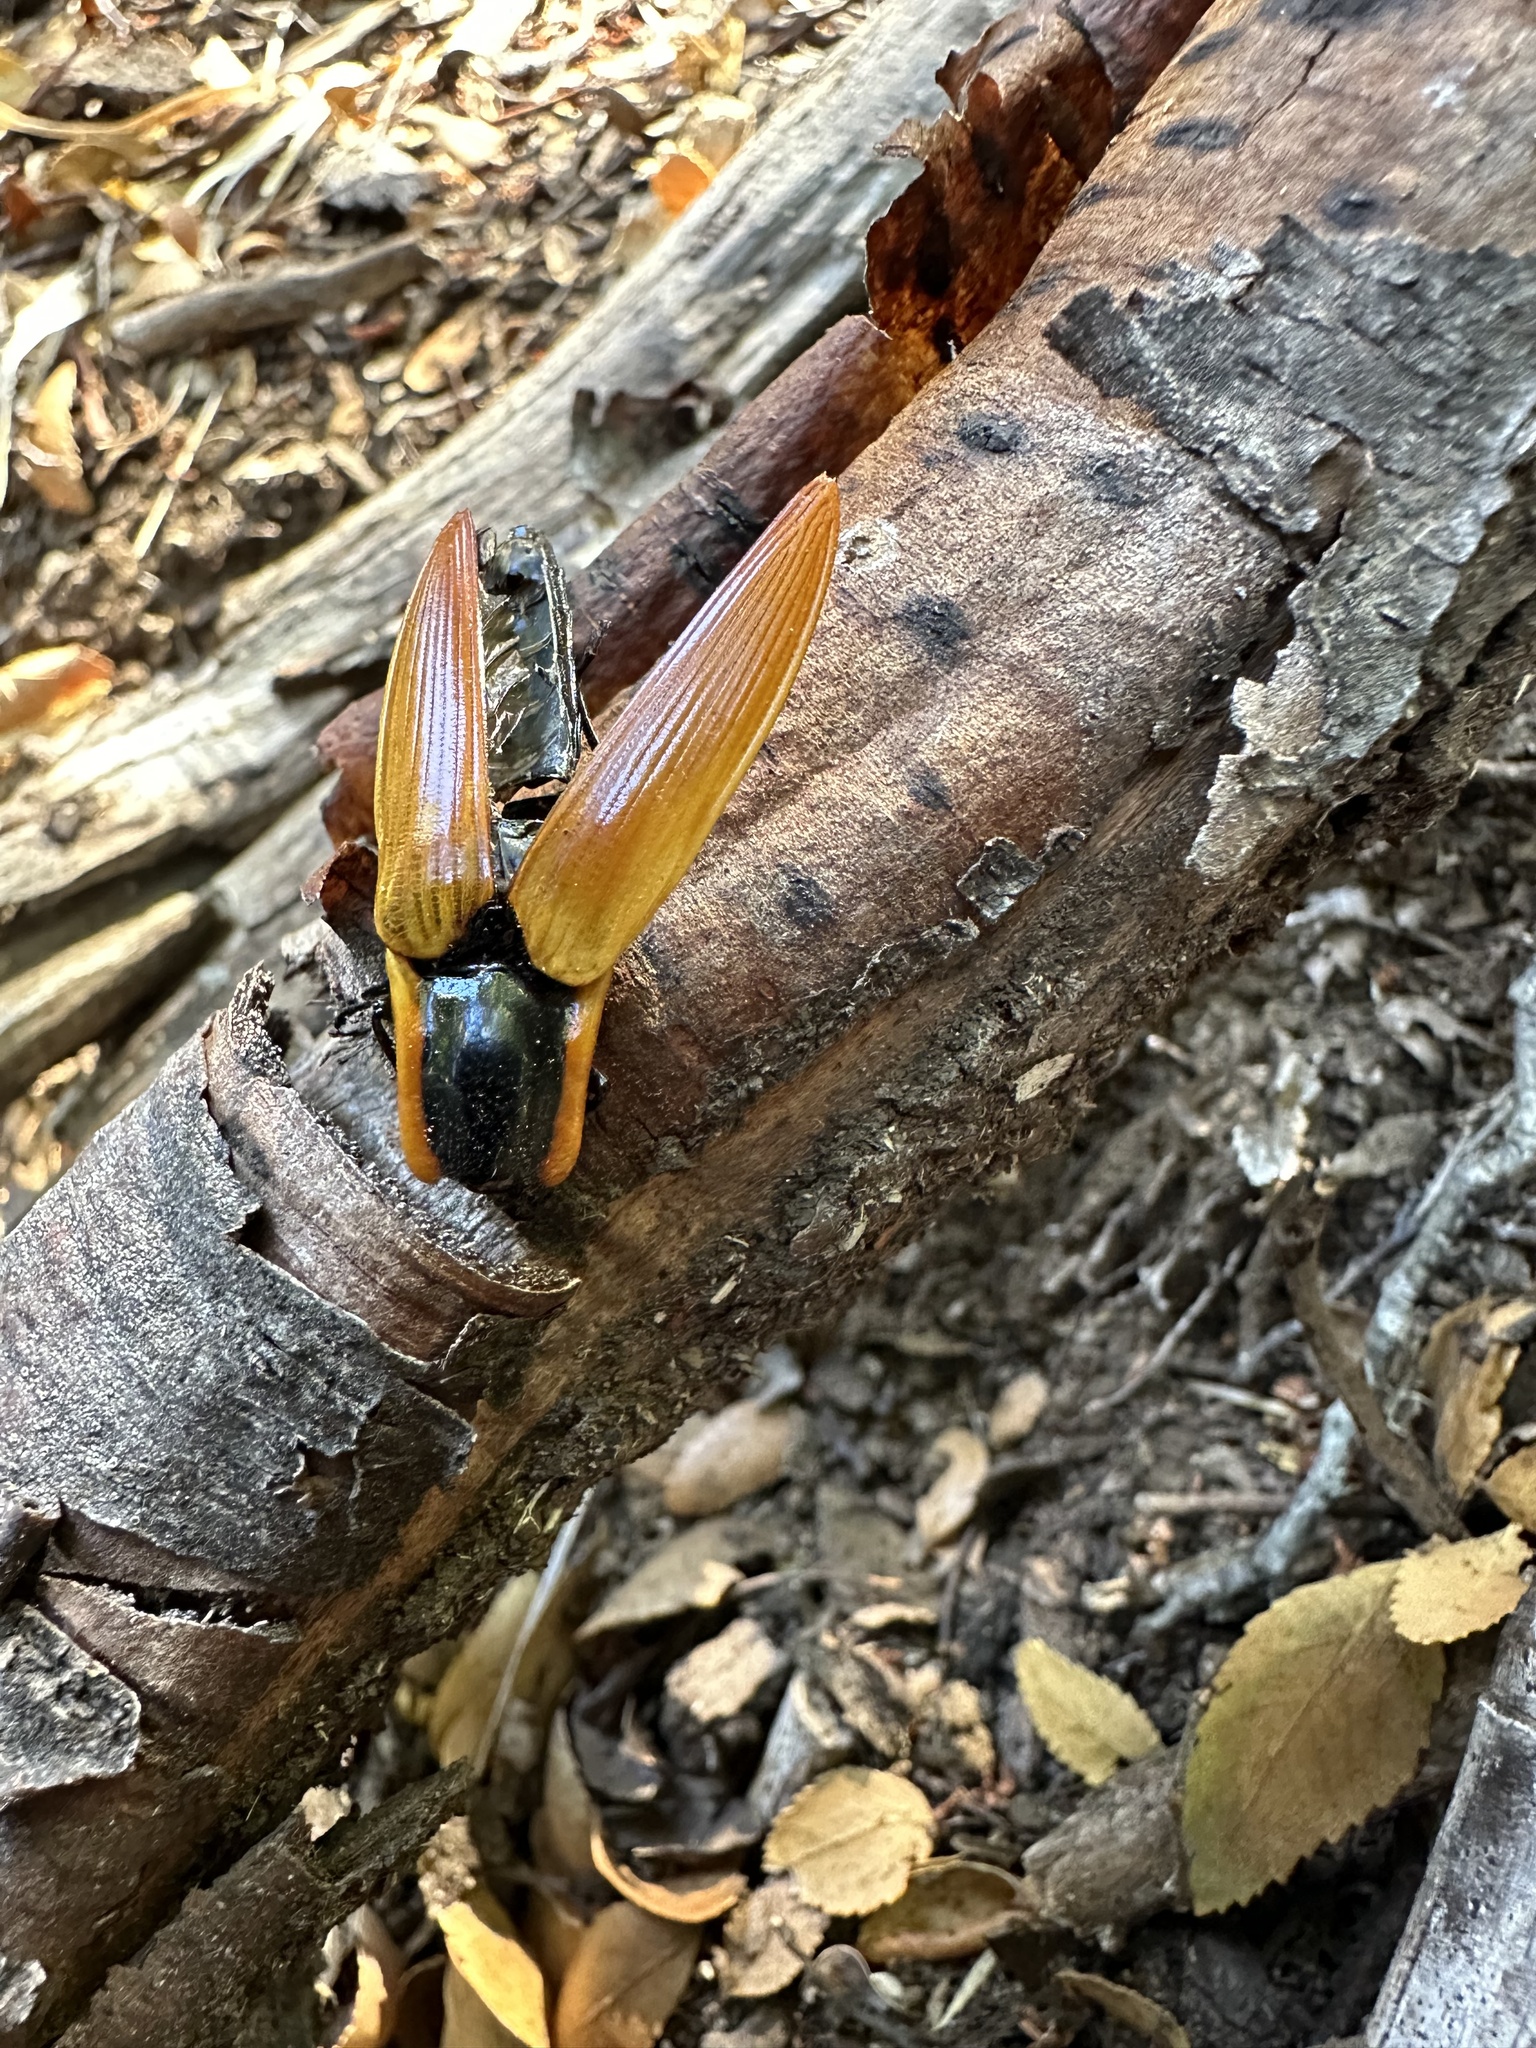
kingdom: Animalia
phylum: Arthropoda
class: Insecta
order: Coleoptera
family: Elateridae
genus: Semiotus
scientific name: Semiotus
